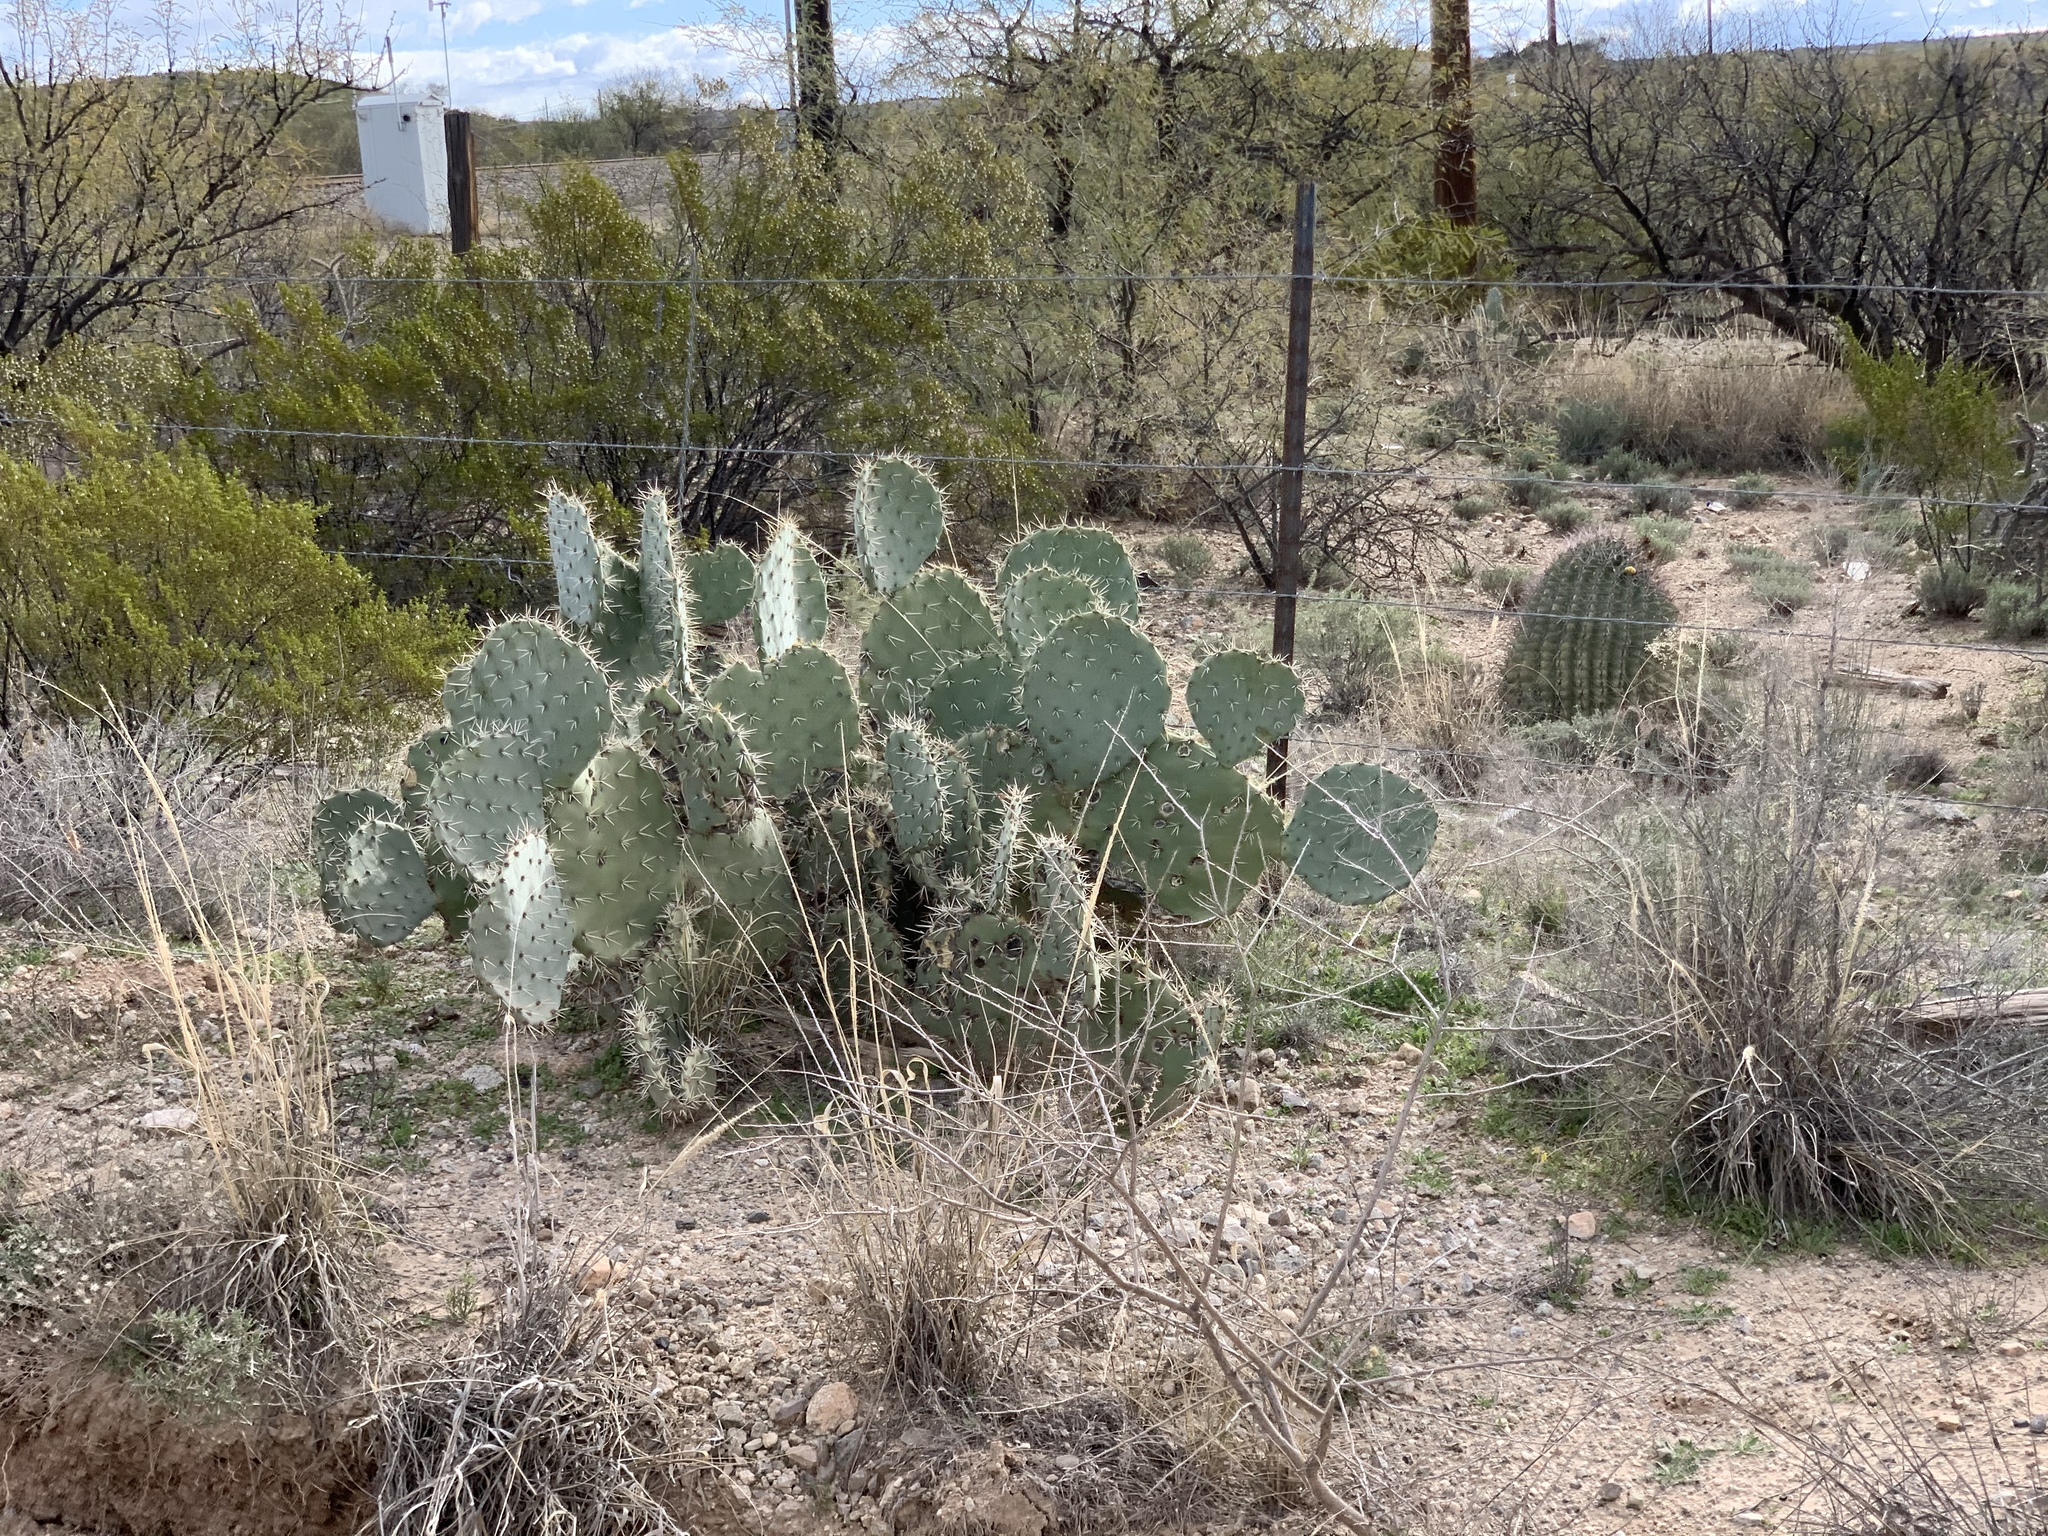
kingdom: Plantae
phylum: Tracheophyta
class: Magnoliopsida
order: Caryophyllales
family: Cactaceae
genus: Opuntia
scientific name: Opuntia engelmannii
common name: Cactus-apple
